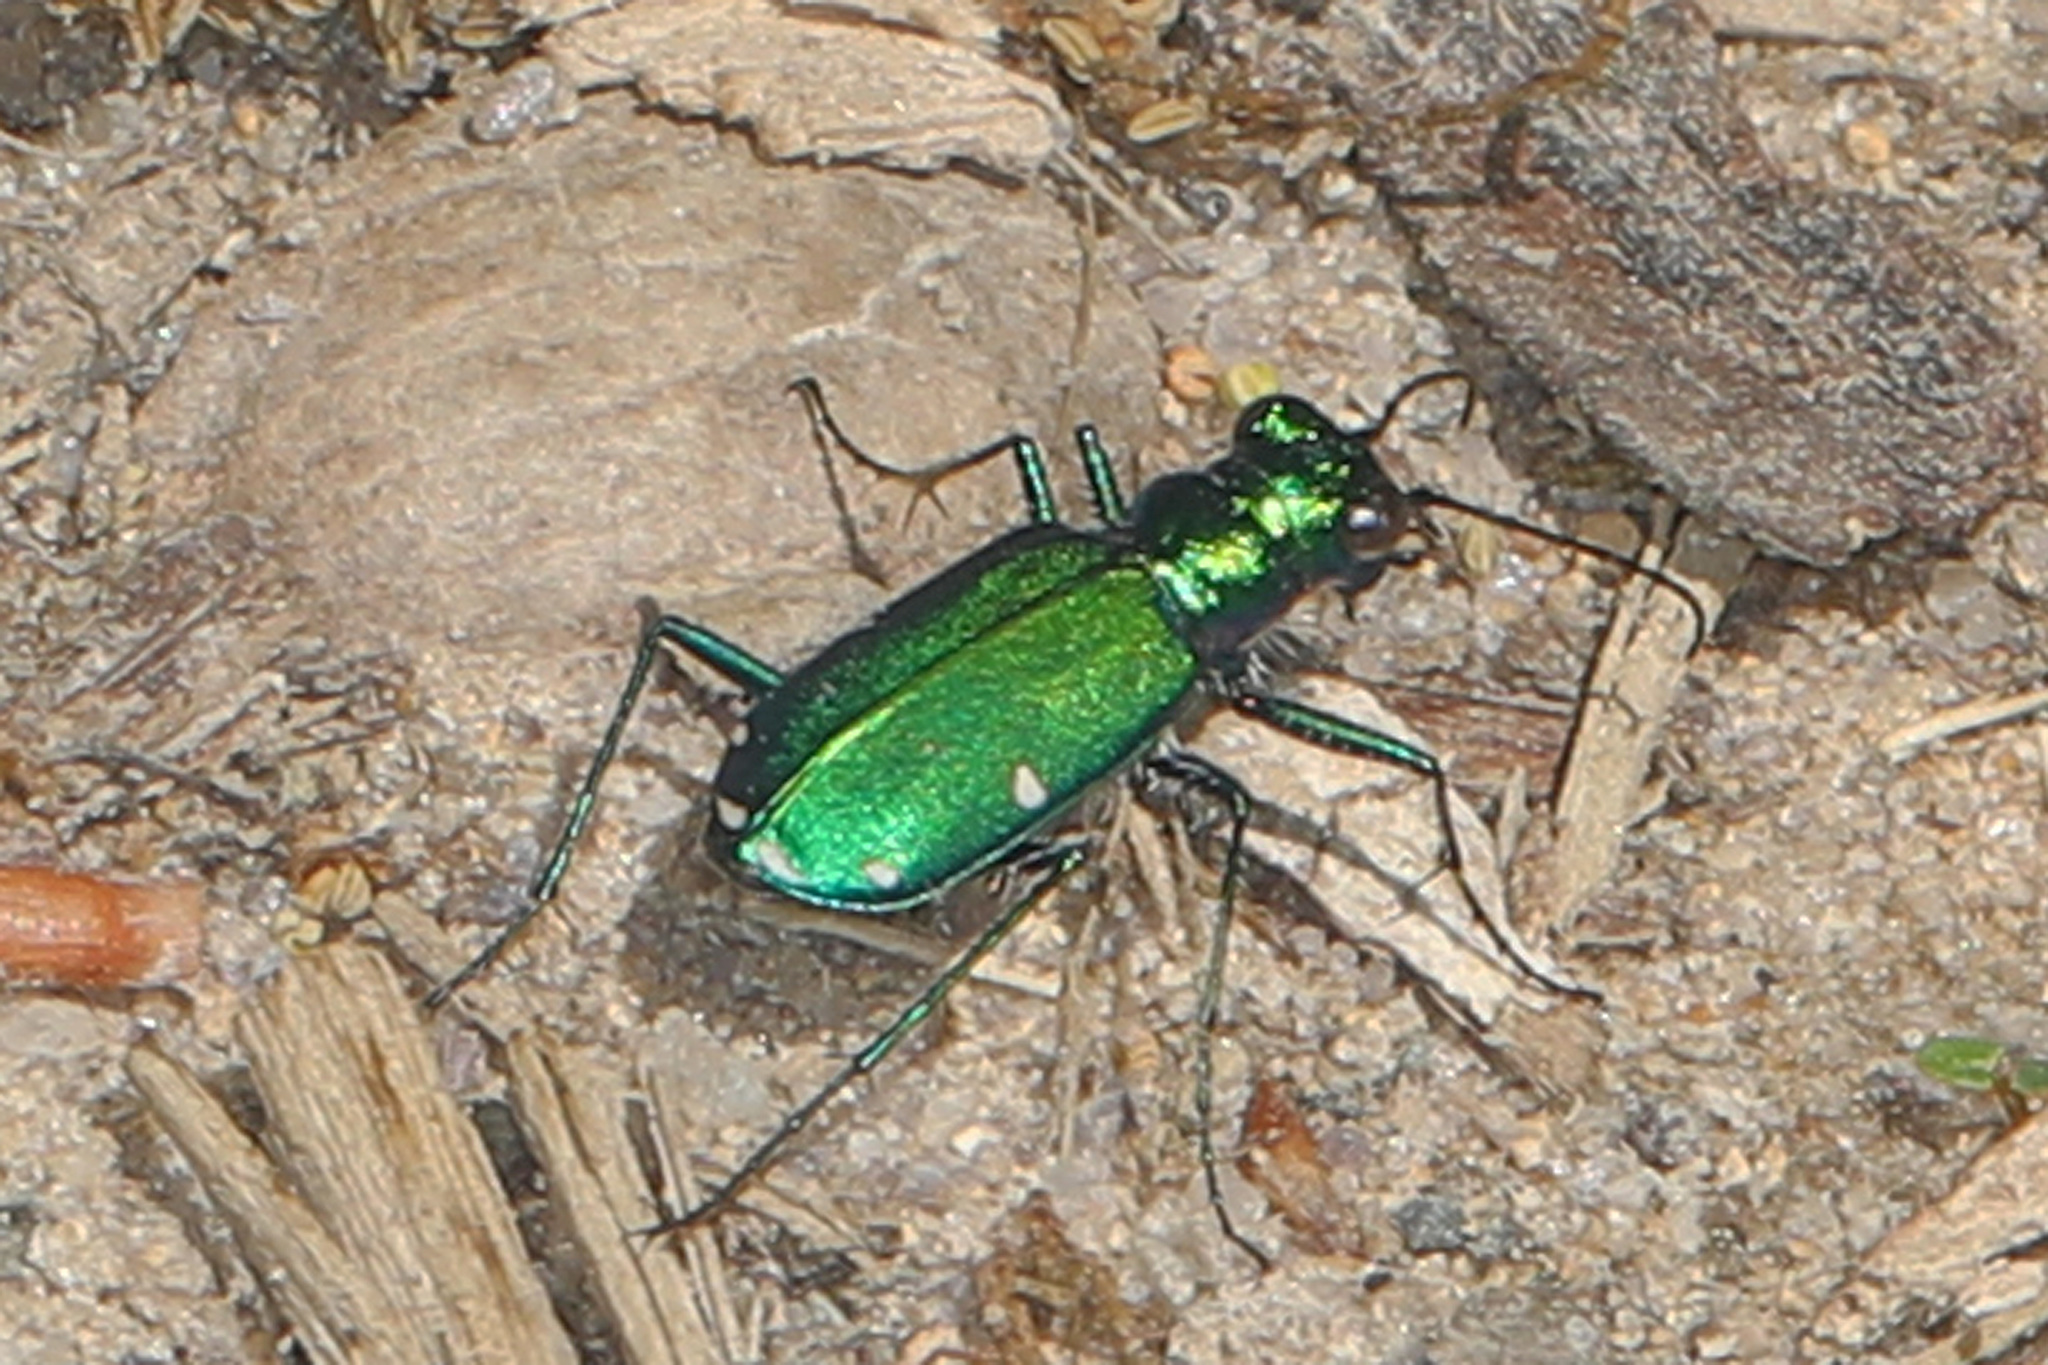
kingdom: Animalia
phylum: Arthropoda
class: Insecta
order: Coleoptera
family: Carabidae
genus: Cicindela
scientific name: Cicindela sexguttata
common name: Six-spotted tiger beetle
